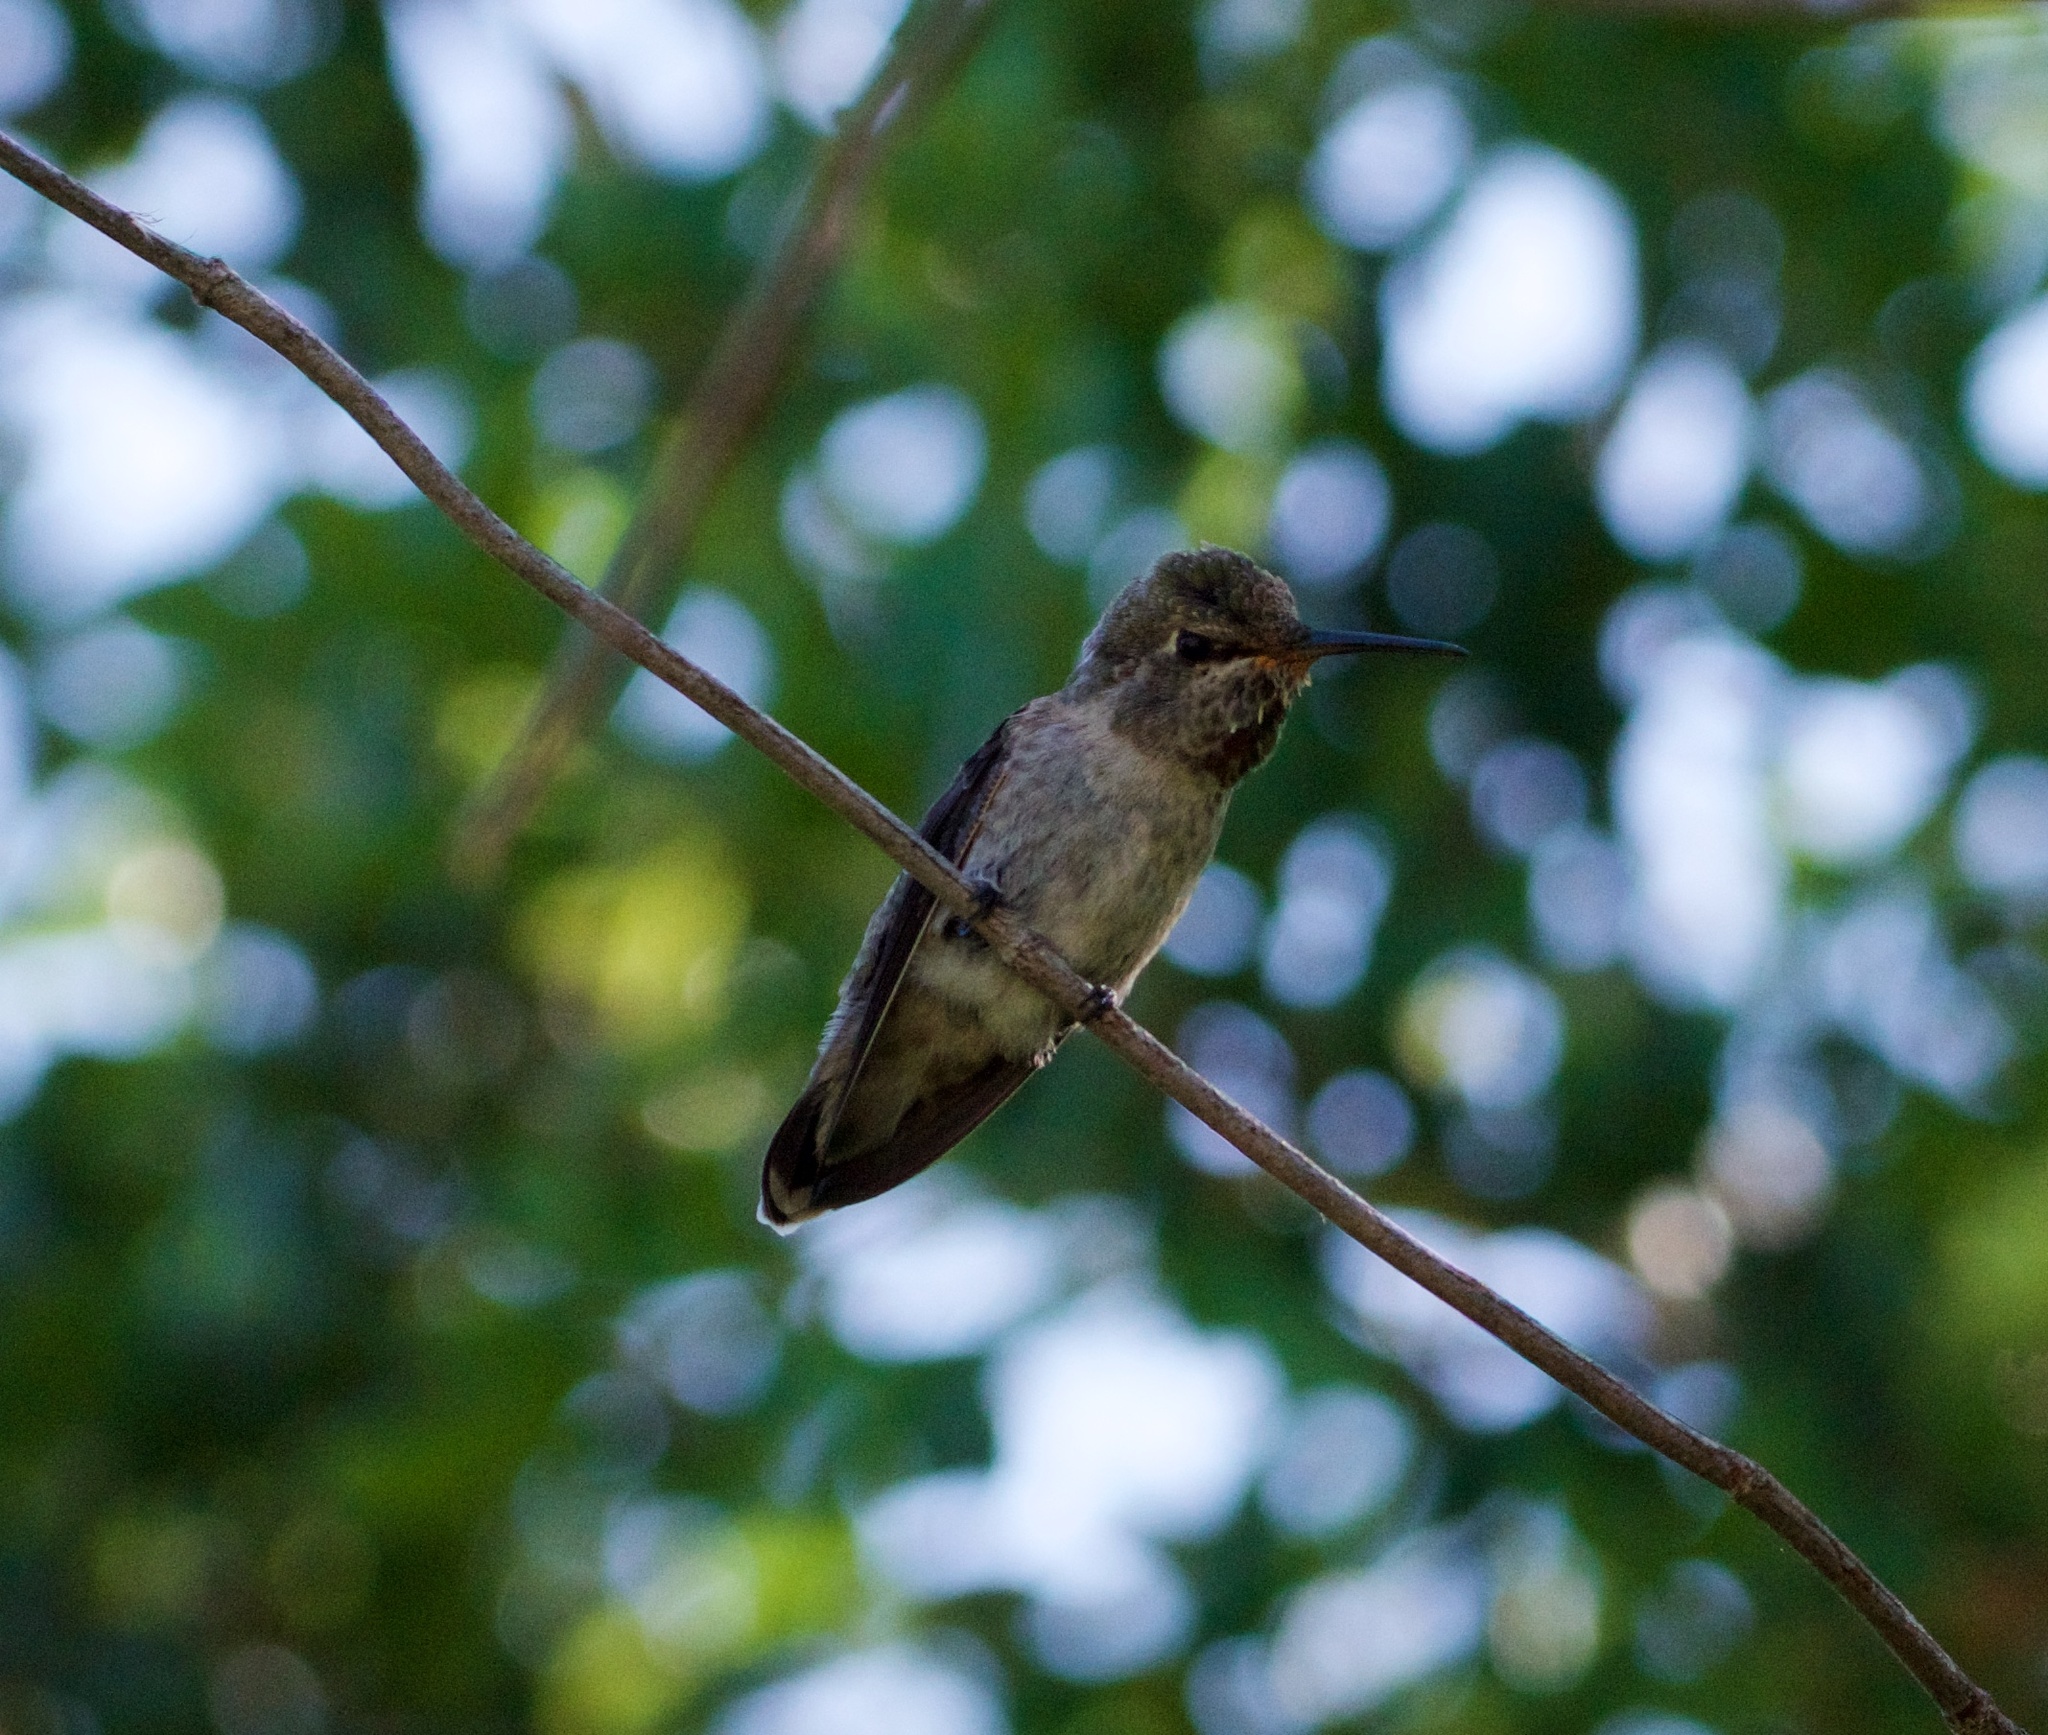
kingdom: Animalia
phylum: Chordata
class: Aves
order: Apodiformes
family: Trochilidae
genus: Calypte
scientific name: Calypte anna
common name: Anna's hummingbird
